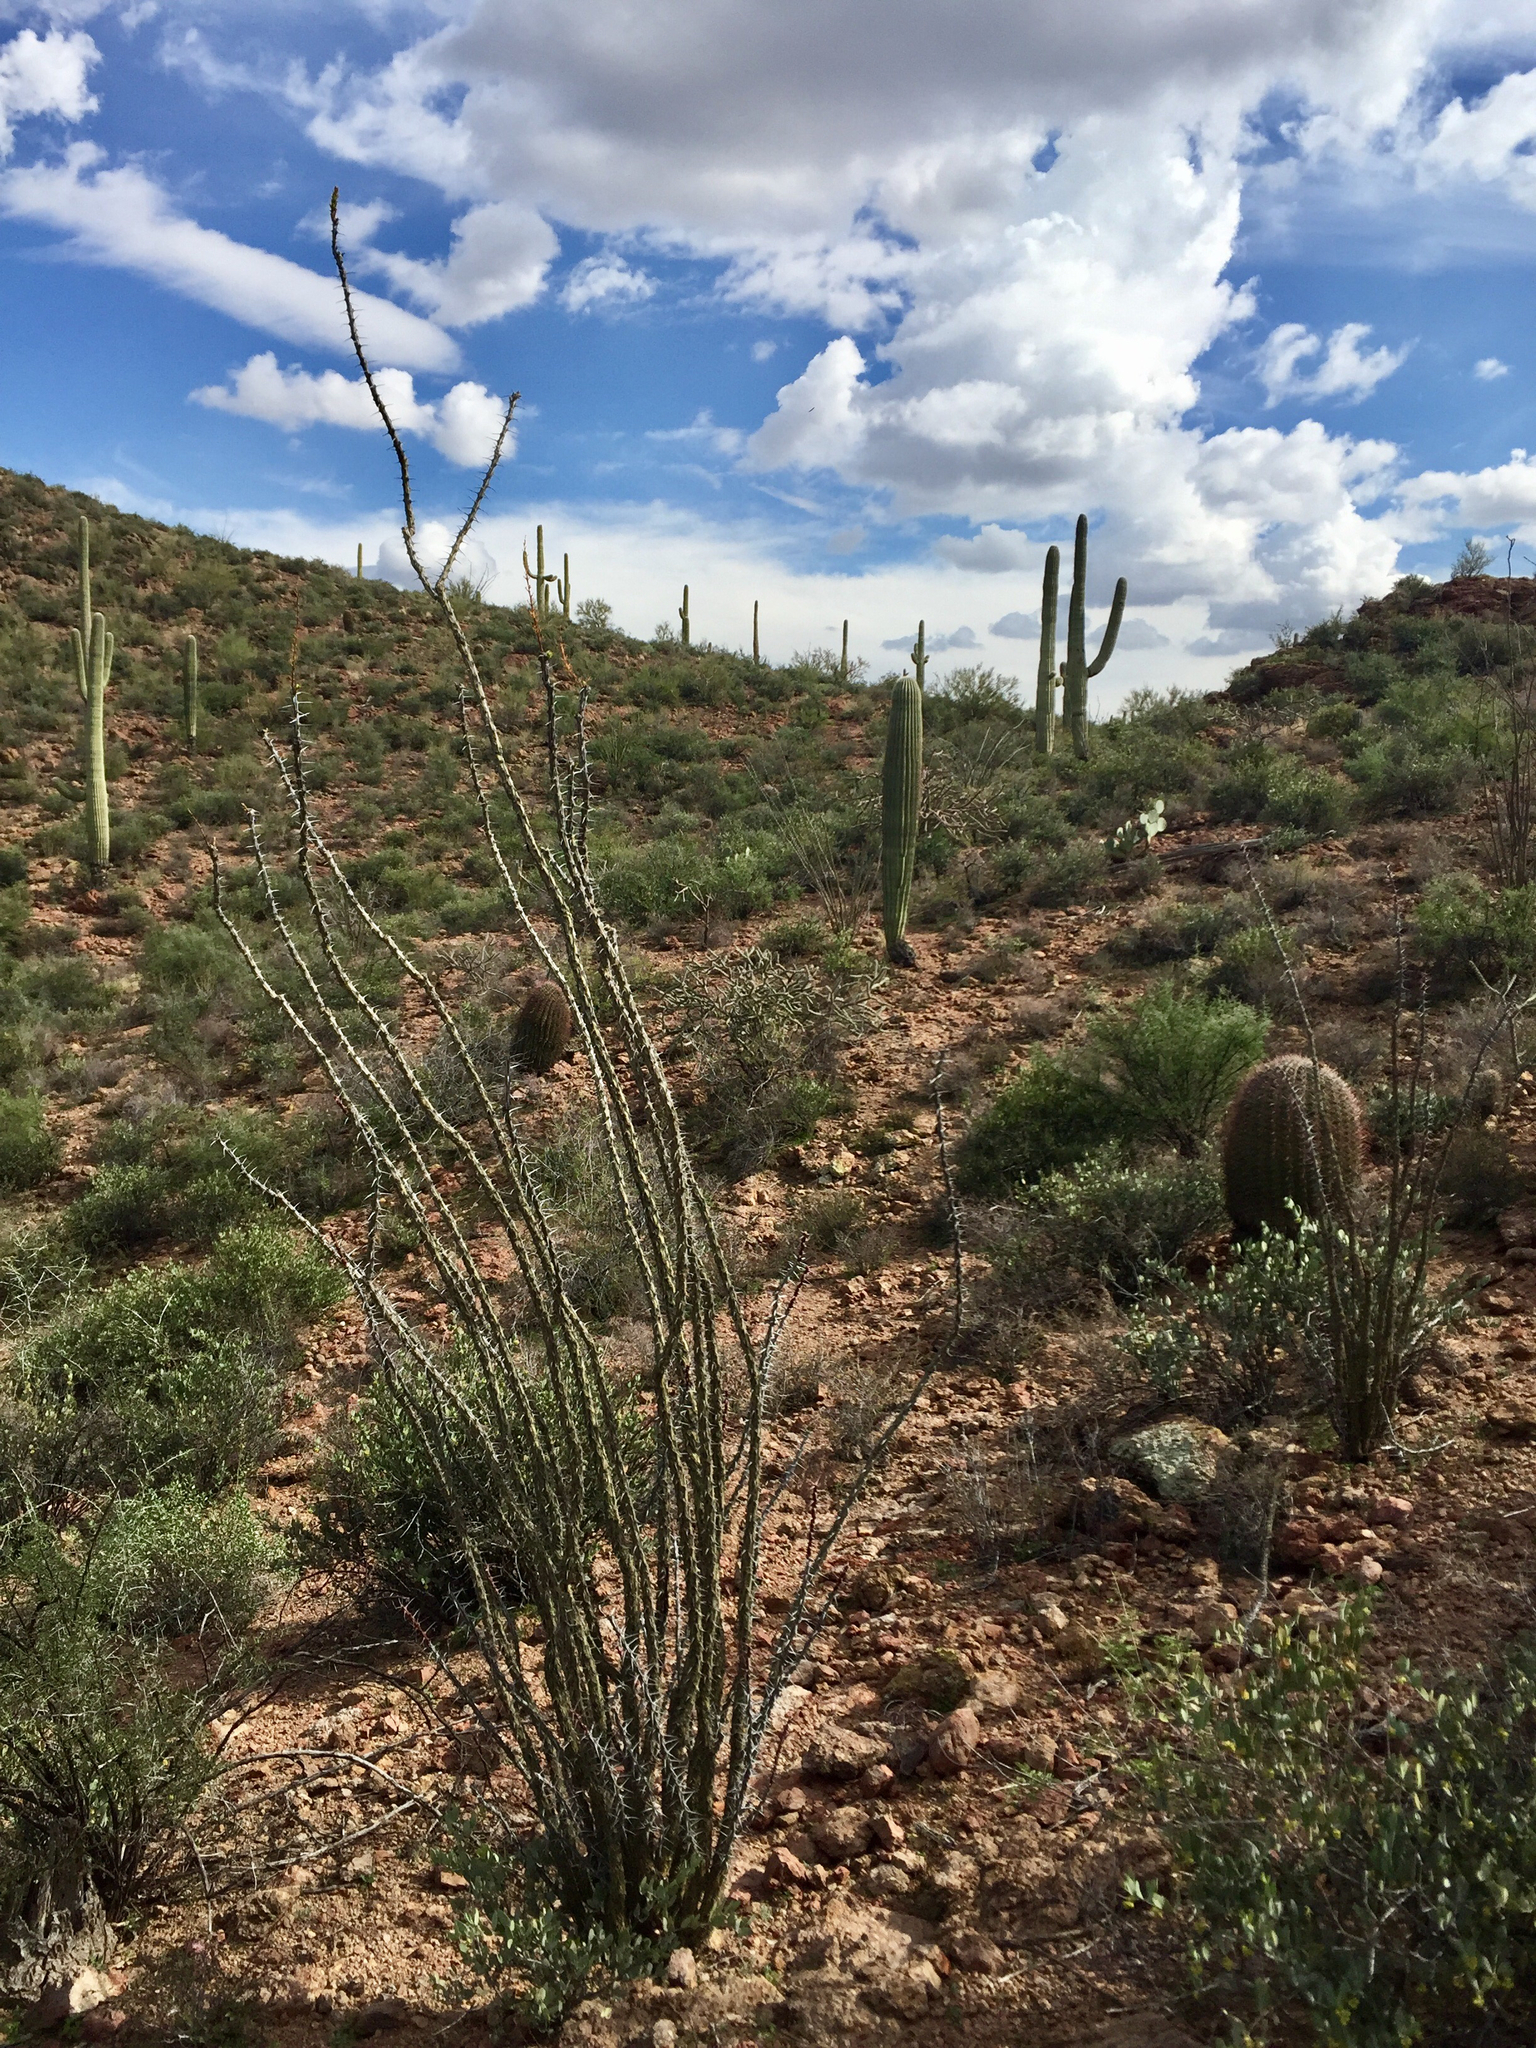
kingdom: Plantae
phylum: Tracheophyta
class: Magnoliopsida
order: Ericales
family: Fouquieriaceae
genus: Fouquieria
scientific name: Fouquieria splendens
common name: Vine-cactus
